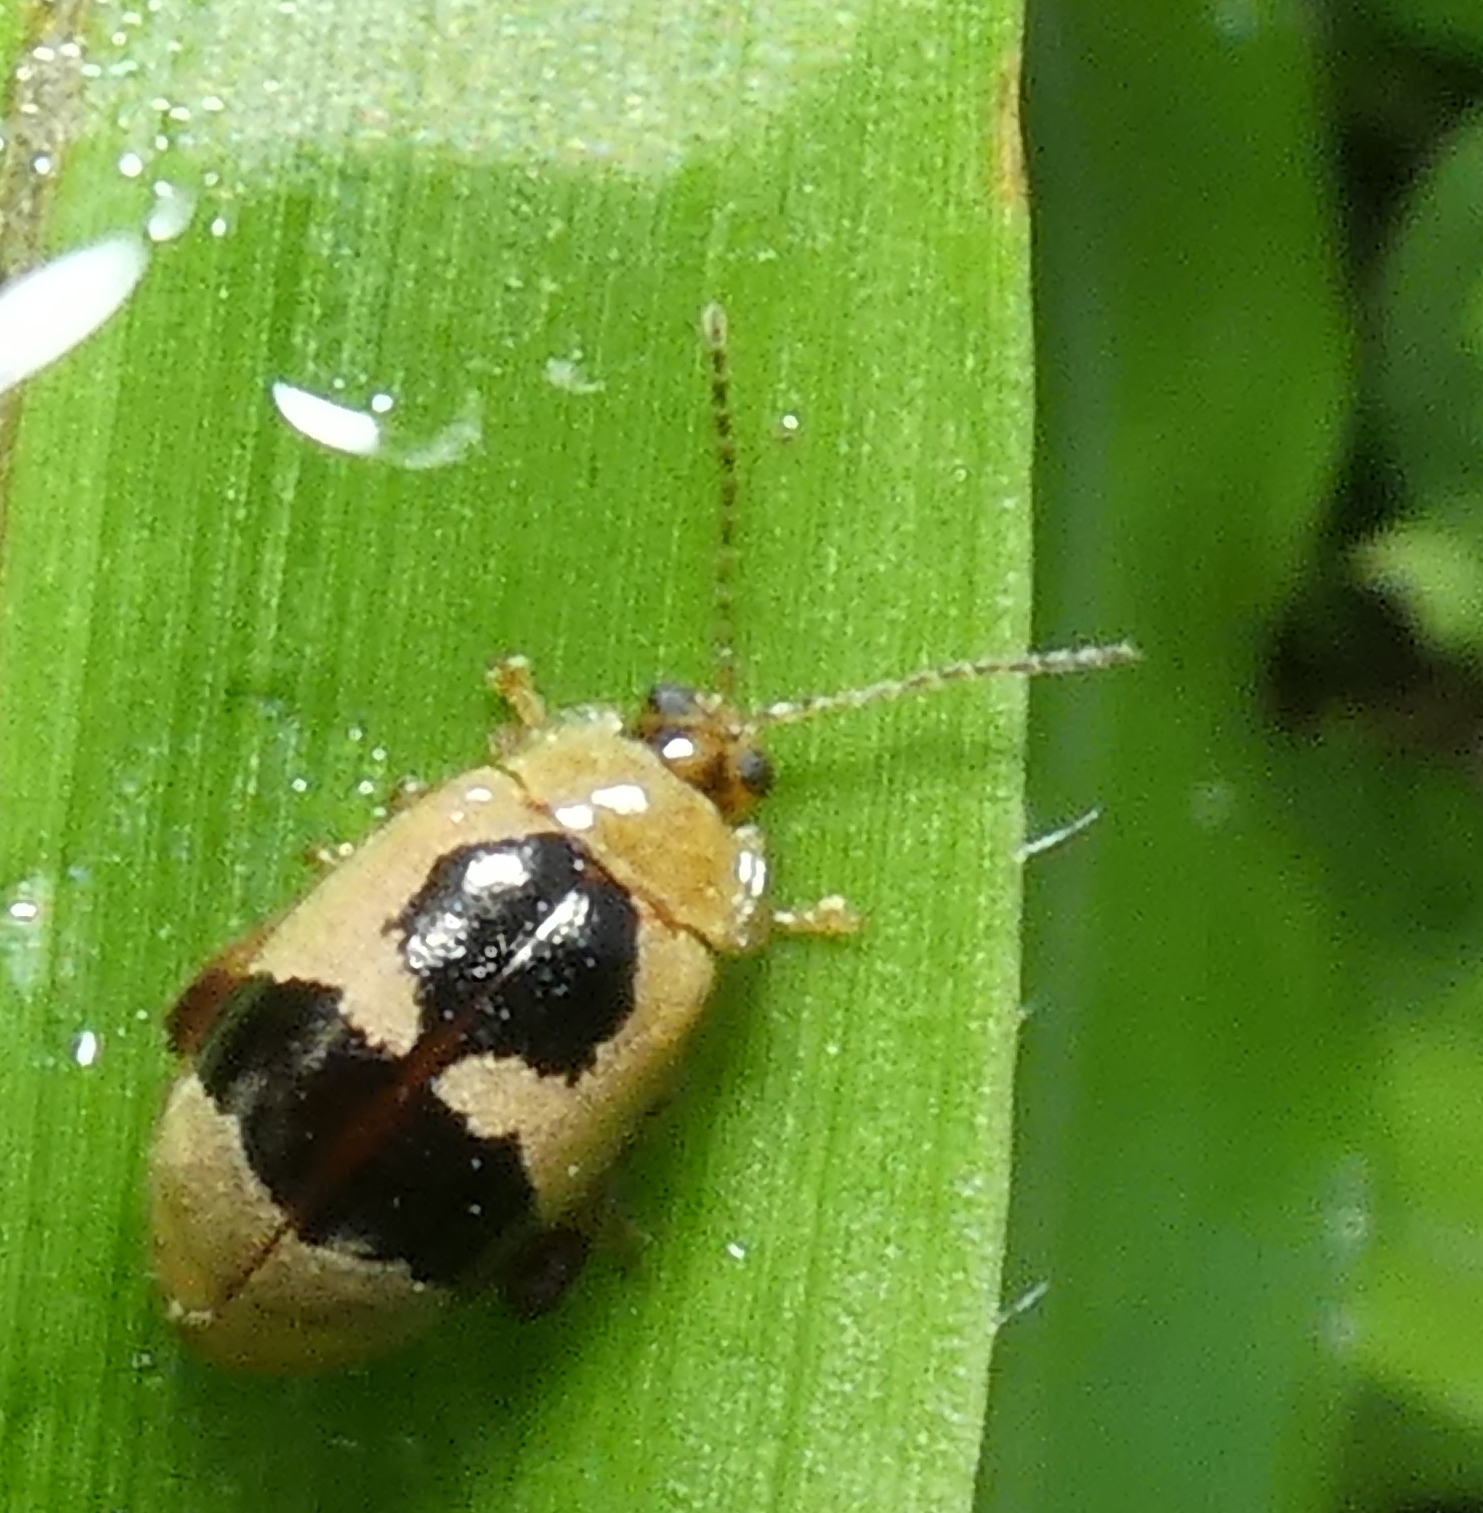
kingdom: Animalia
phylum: Arthropoda
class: Insecta
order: Coleoptera
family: Chrysomelidae
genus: Alagoasa
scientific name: Alagoasa
